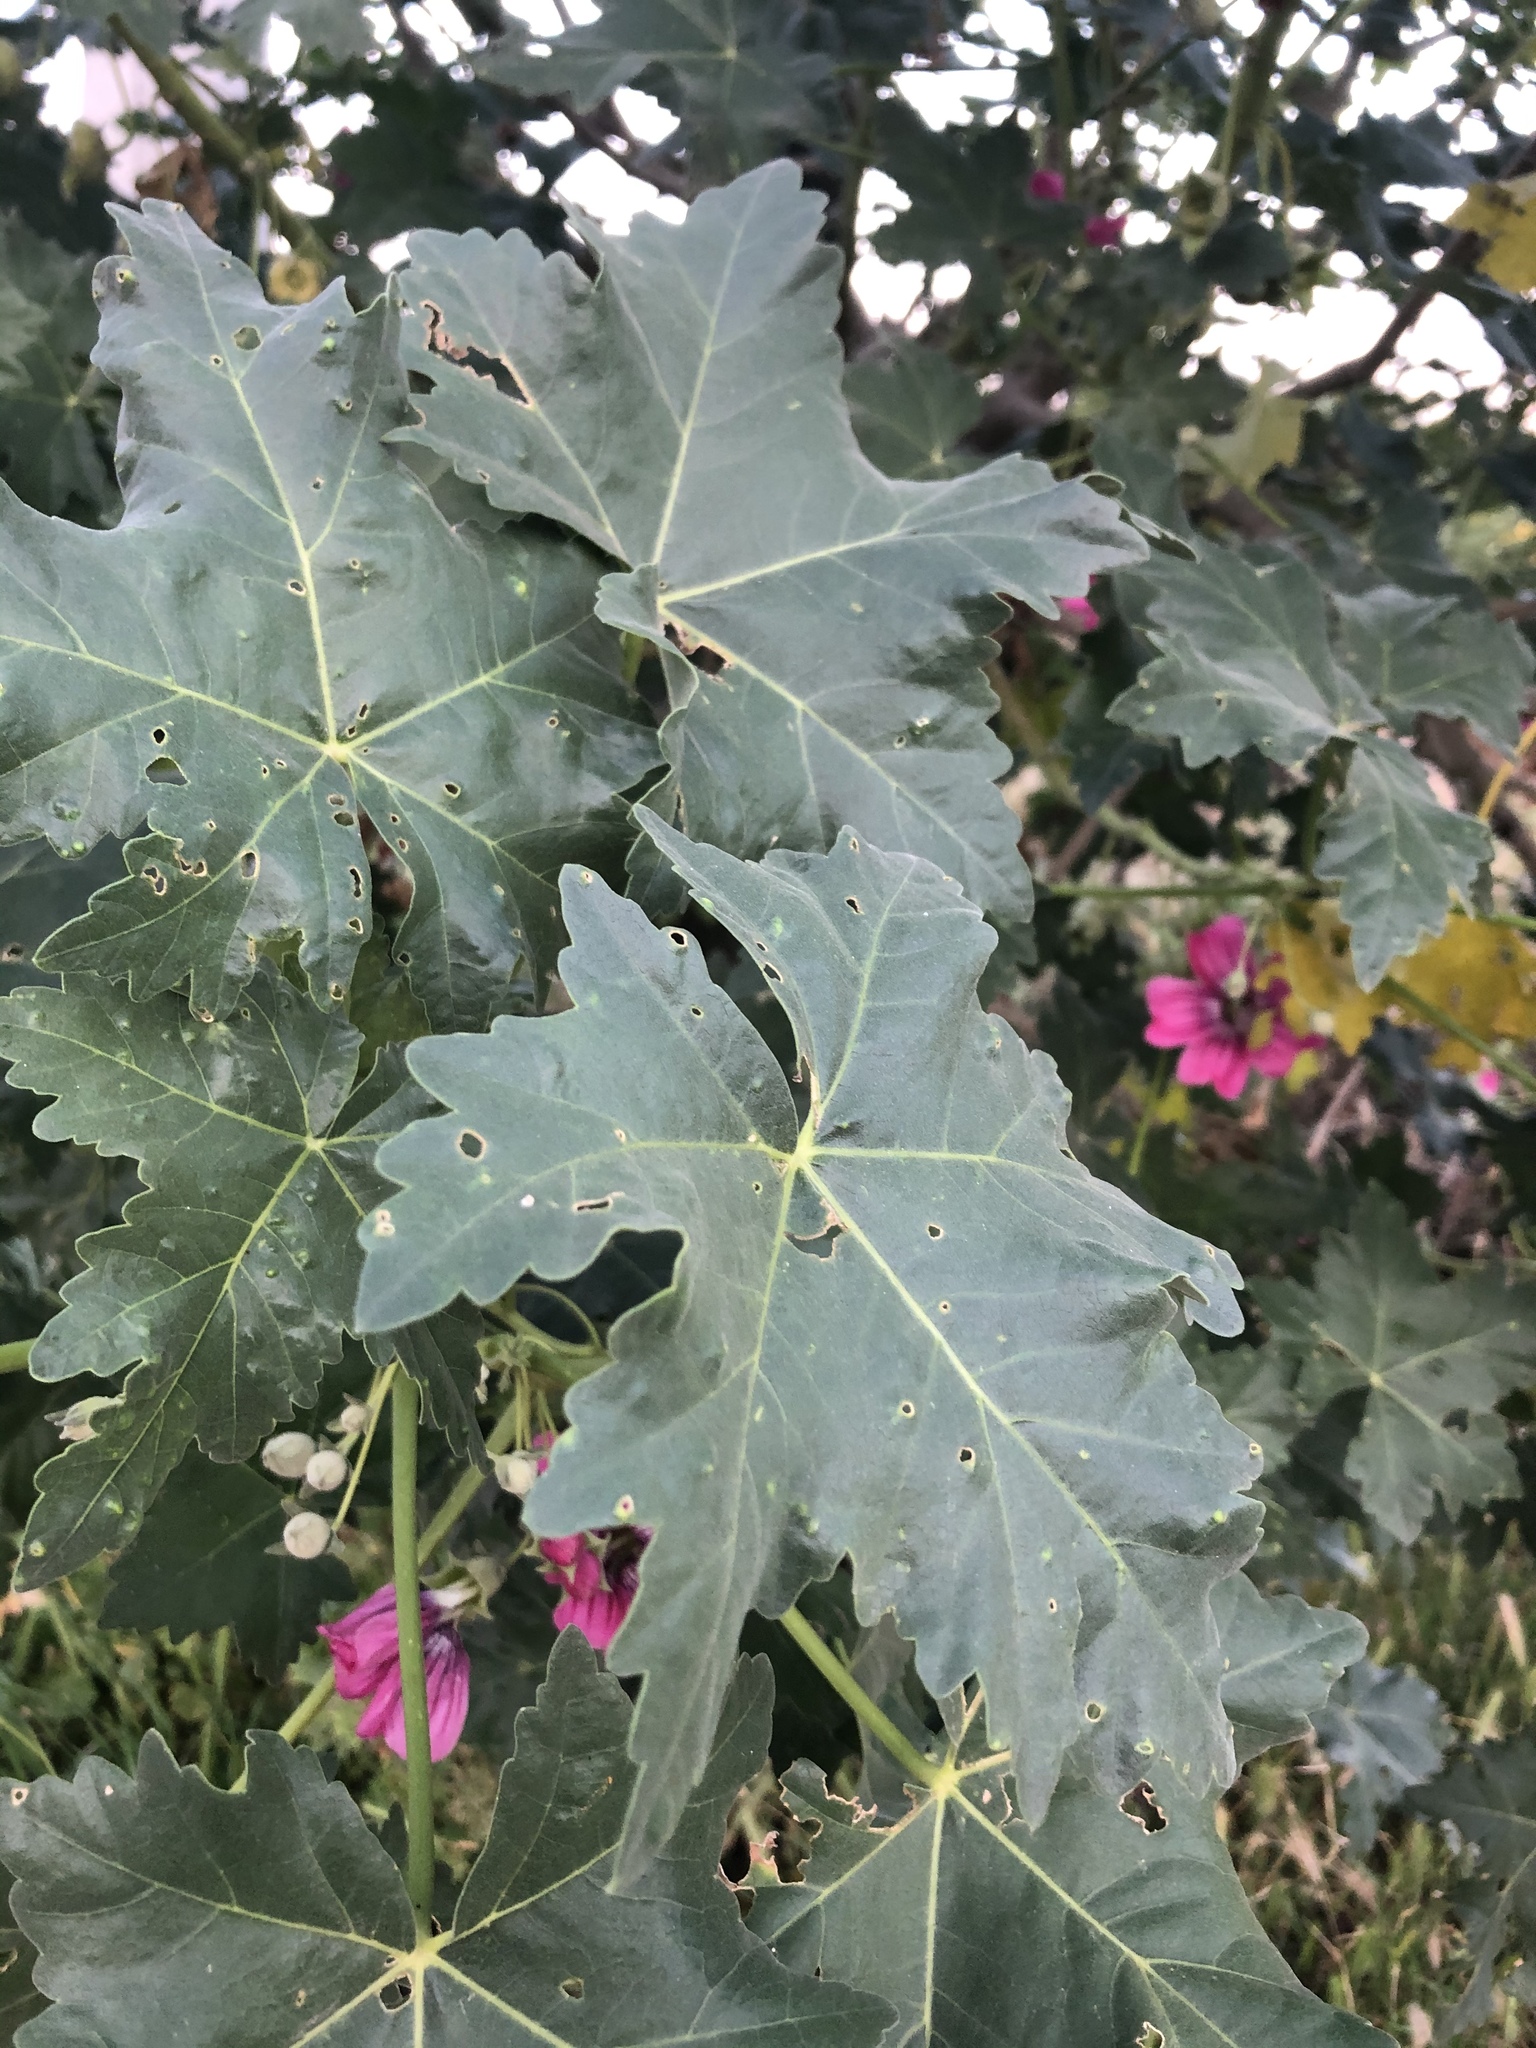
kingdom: Plantae
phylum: Tracheophyta
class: Magnoliopsida
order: Malvales
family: Malvaceae
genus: Malva
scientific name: Malva assurgentiflora
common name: Island mallow
